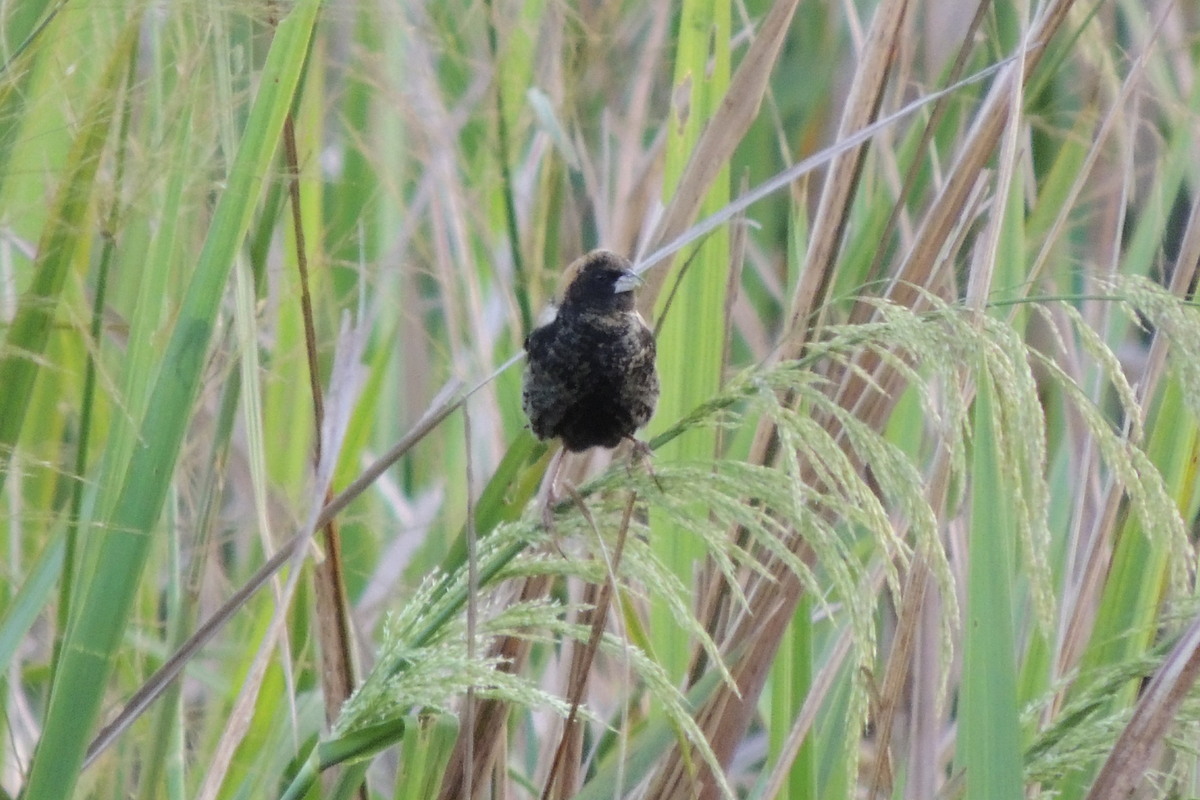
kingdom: Animalia
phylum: Chordata
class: Aves
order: Passeriformes
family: Icteridae
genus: Dolichonyx
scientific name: Dolichonyx oryzivorus
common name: Bobolink
